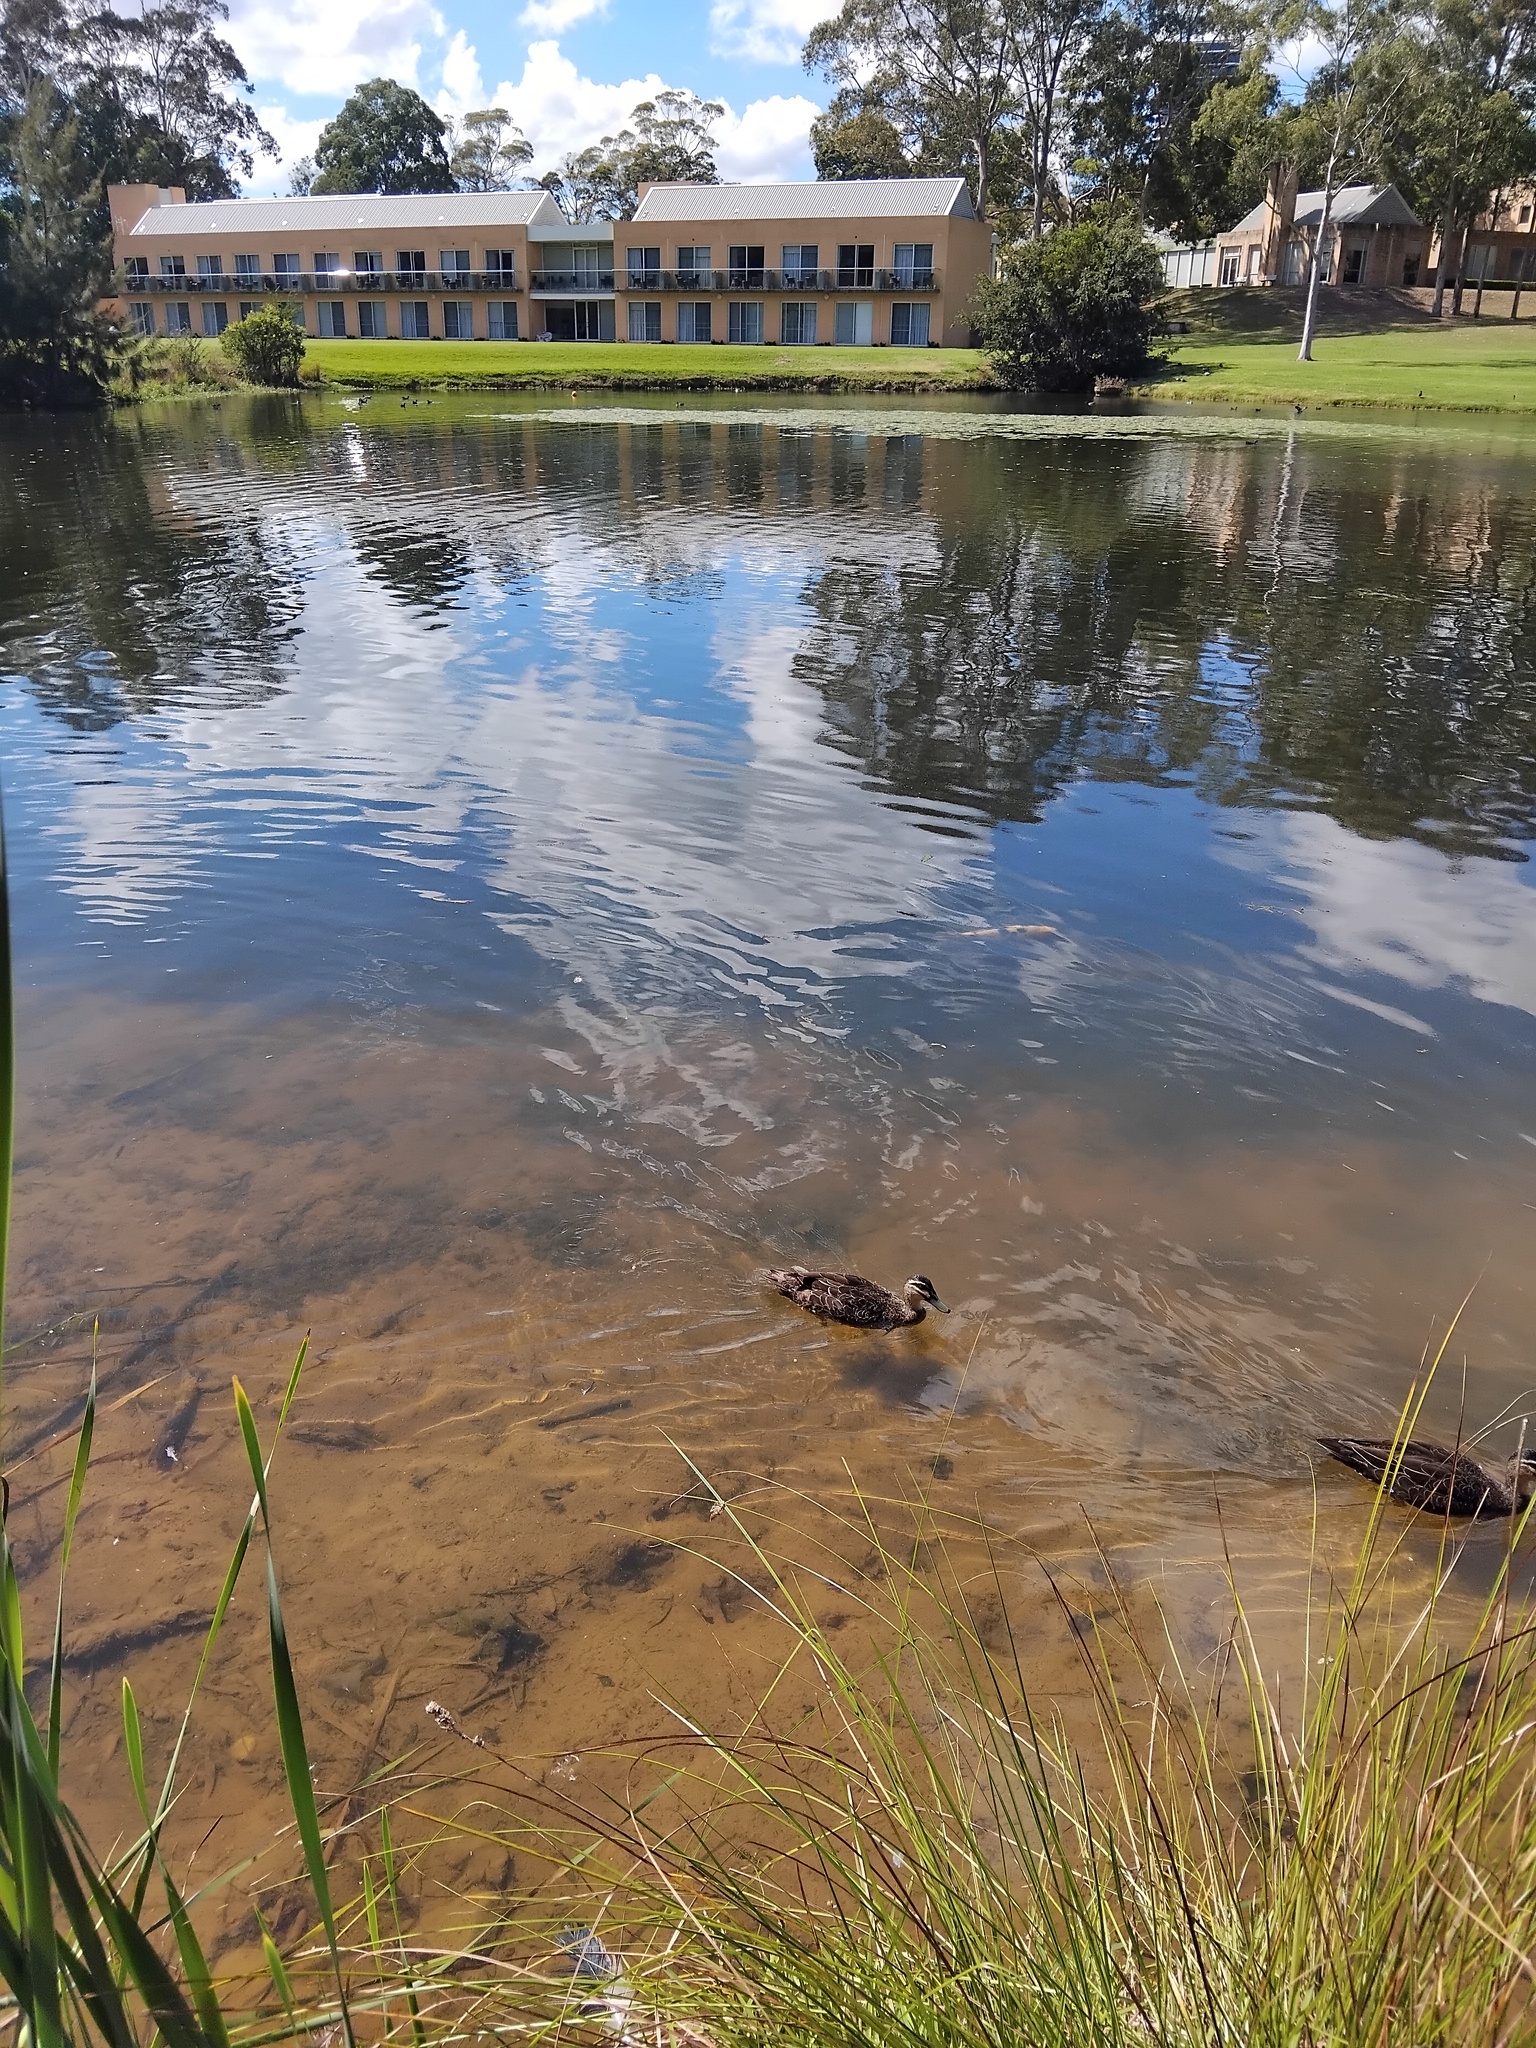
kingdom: Animalia
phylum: Chordata
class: Aves
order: Anseriformes
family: Anatidae
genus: Anas
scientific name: Anas superciliosa
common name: Pacific black duck
